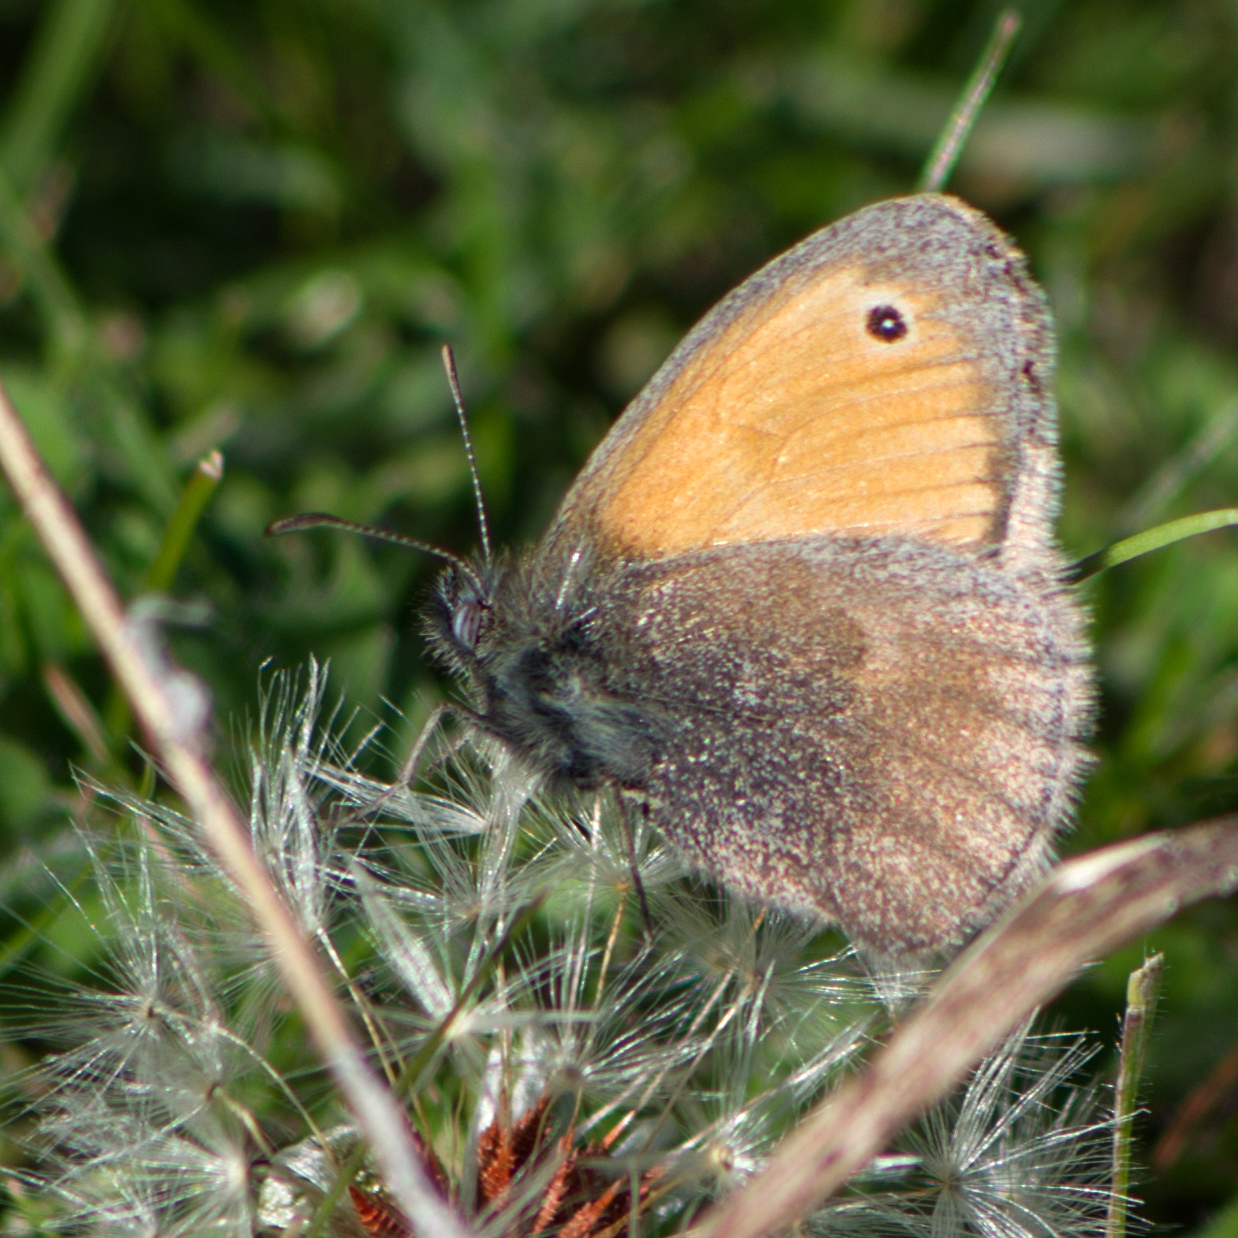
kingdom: Animalia
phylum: Arthropoda
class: Insecta
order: Lepidoptera
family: Nymphalidae
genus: Coenonympha
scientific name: Coenonympha pamphilus
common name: Small heath
